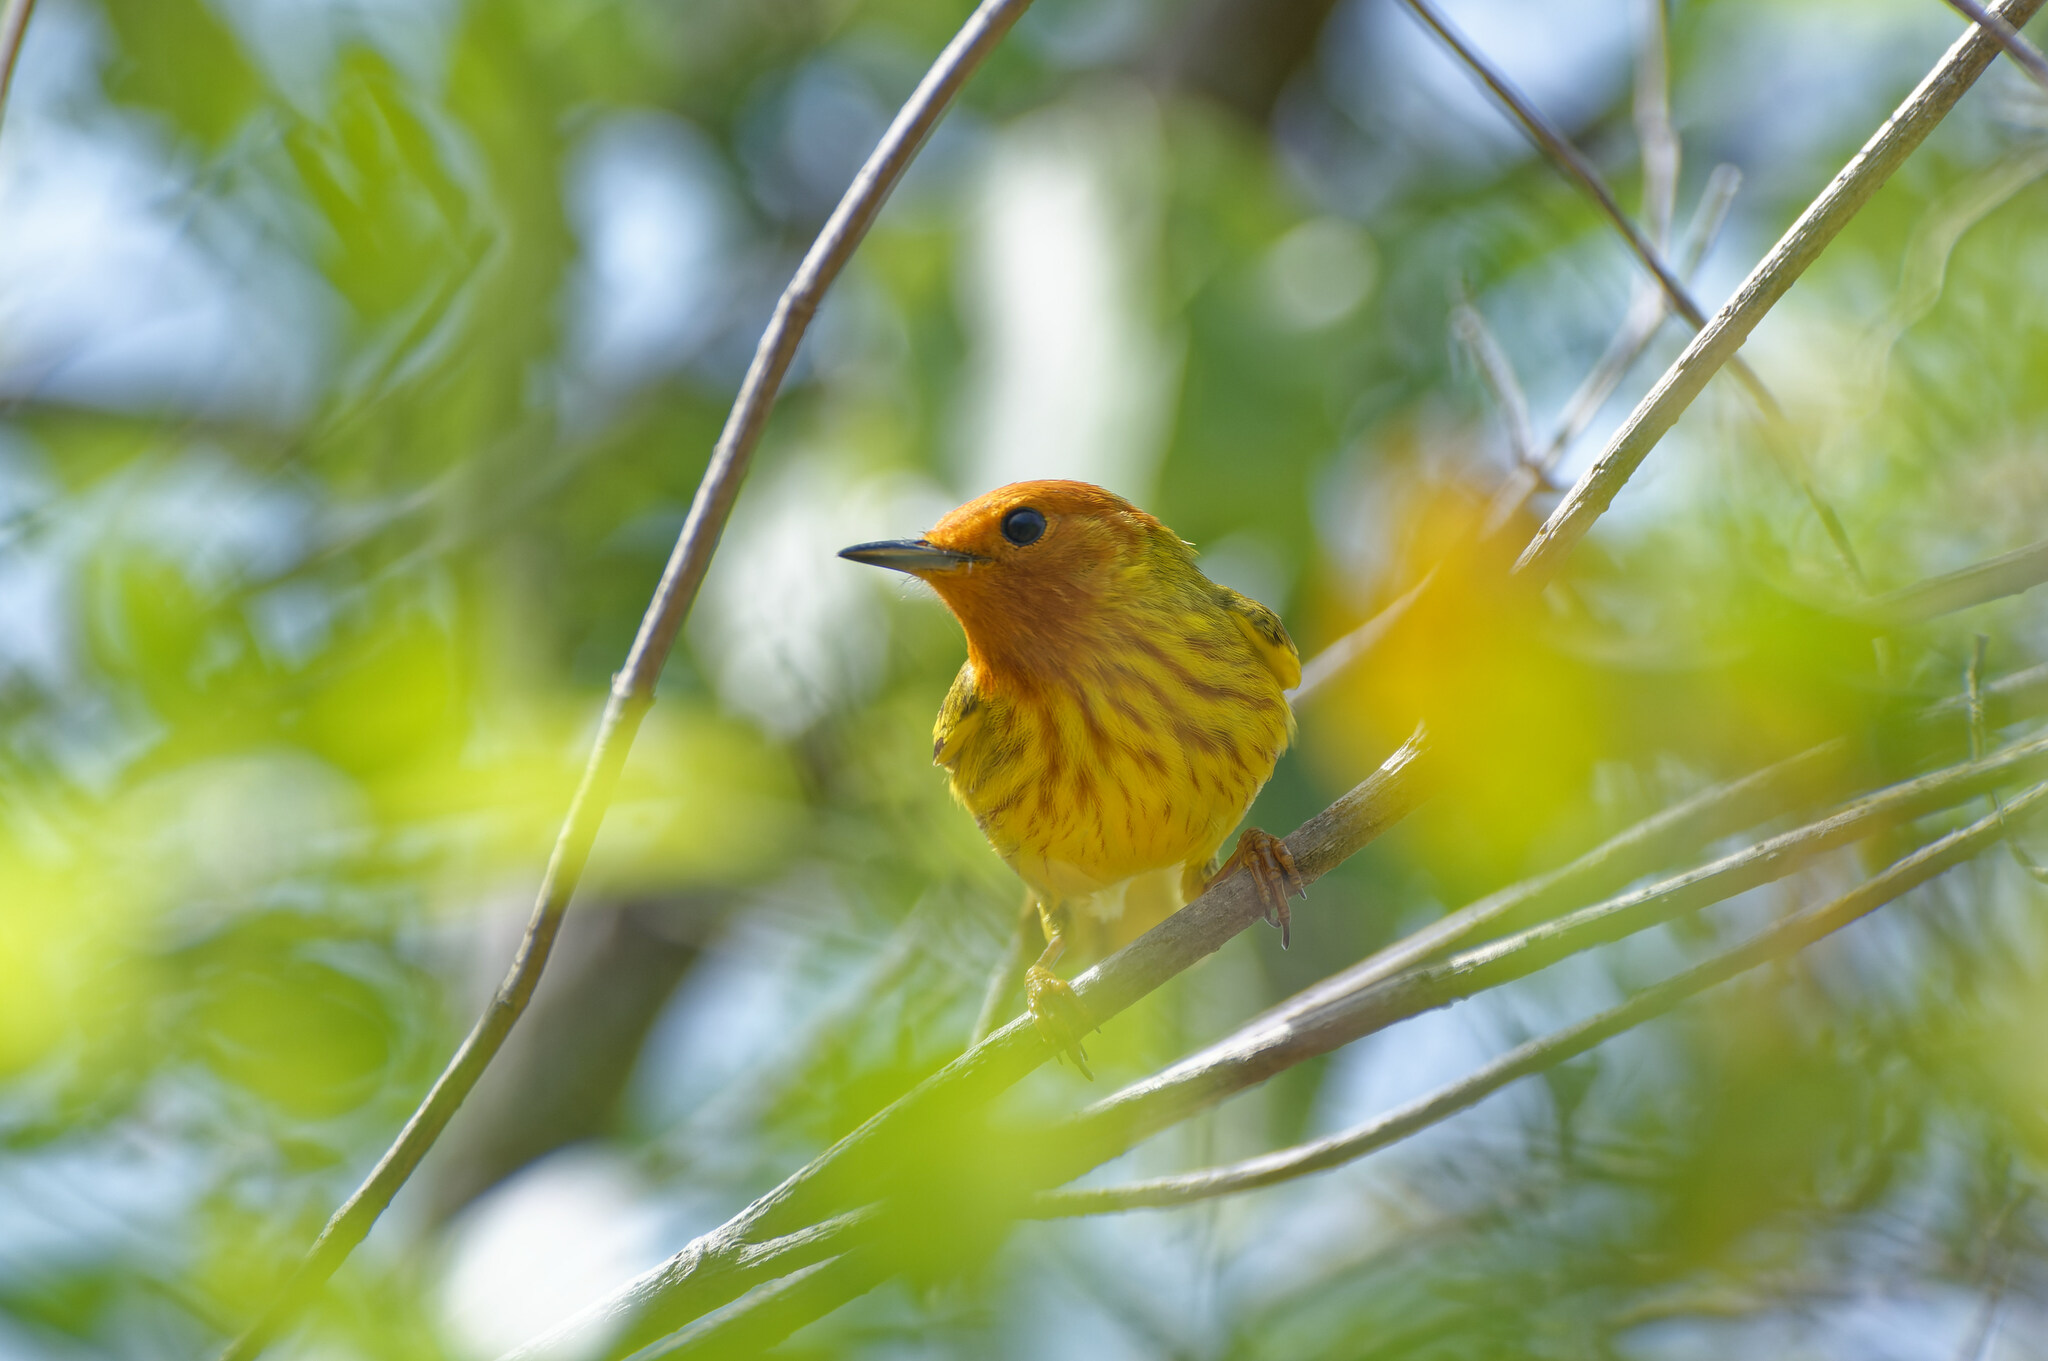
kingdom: Animalia
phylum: Chordata
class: Aves
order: Passeriformes
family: Parulidae
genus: Setophaga
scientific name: Setophaga petechia
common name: Yellow warbler
